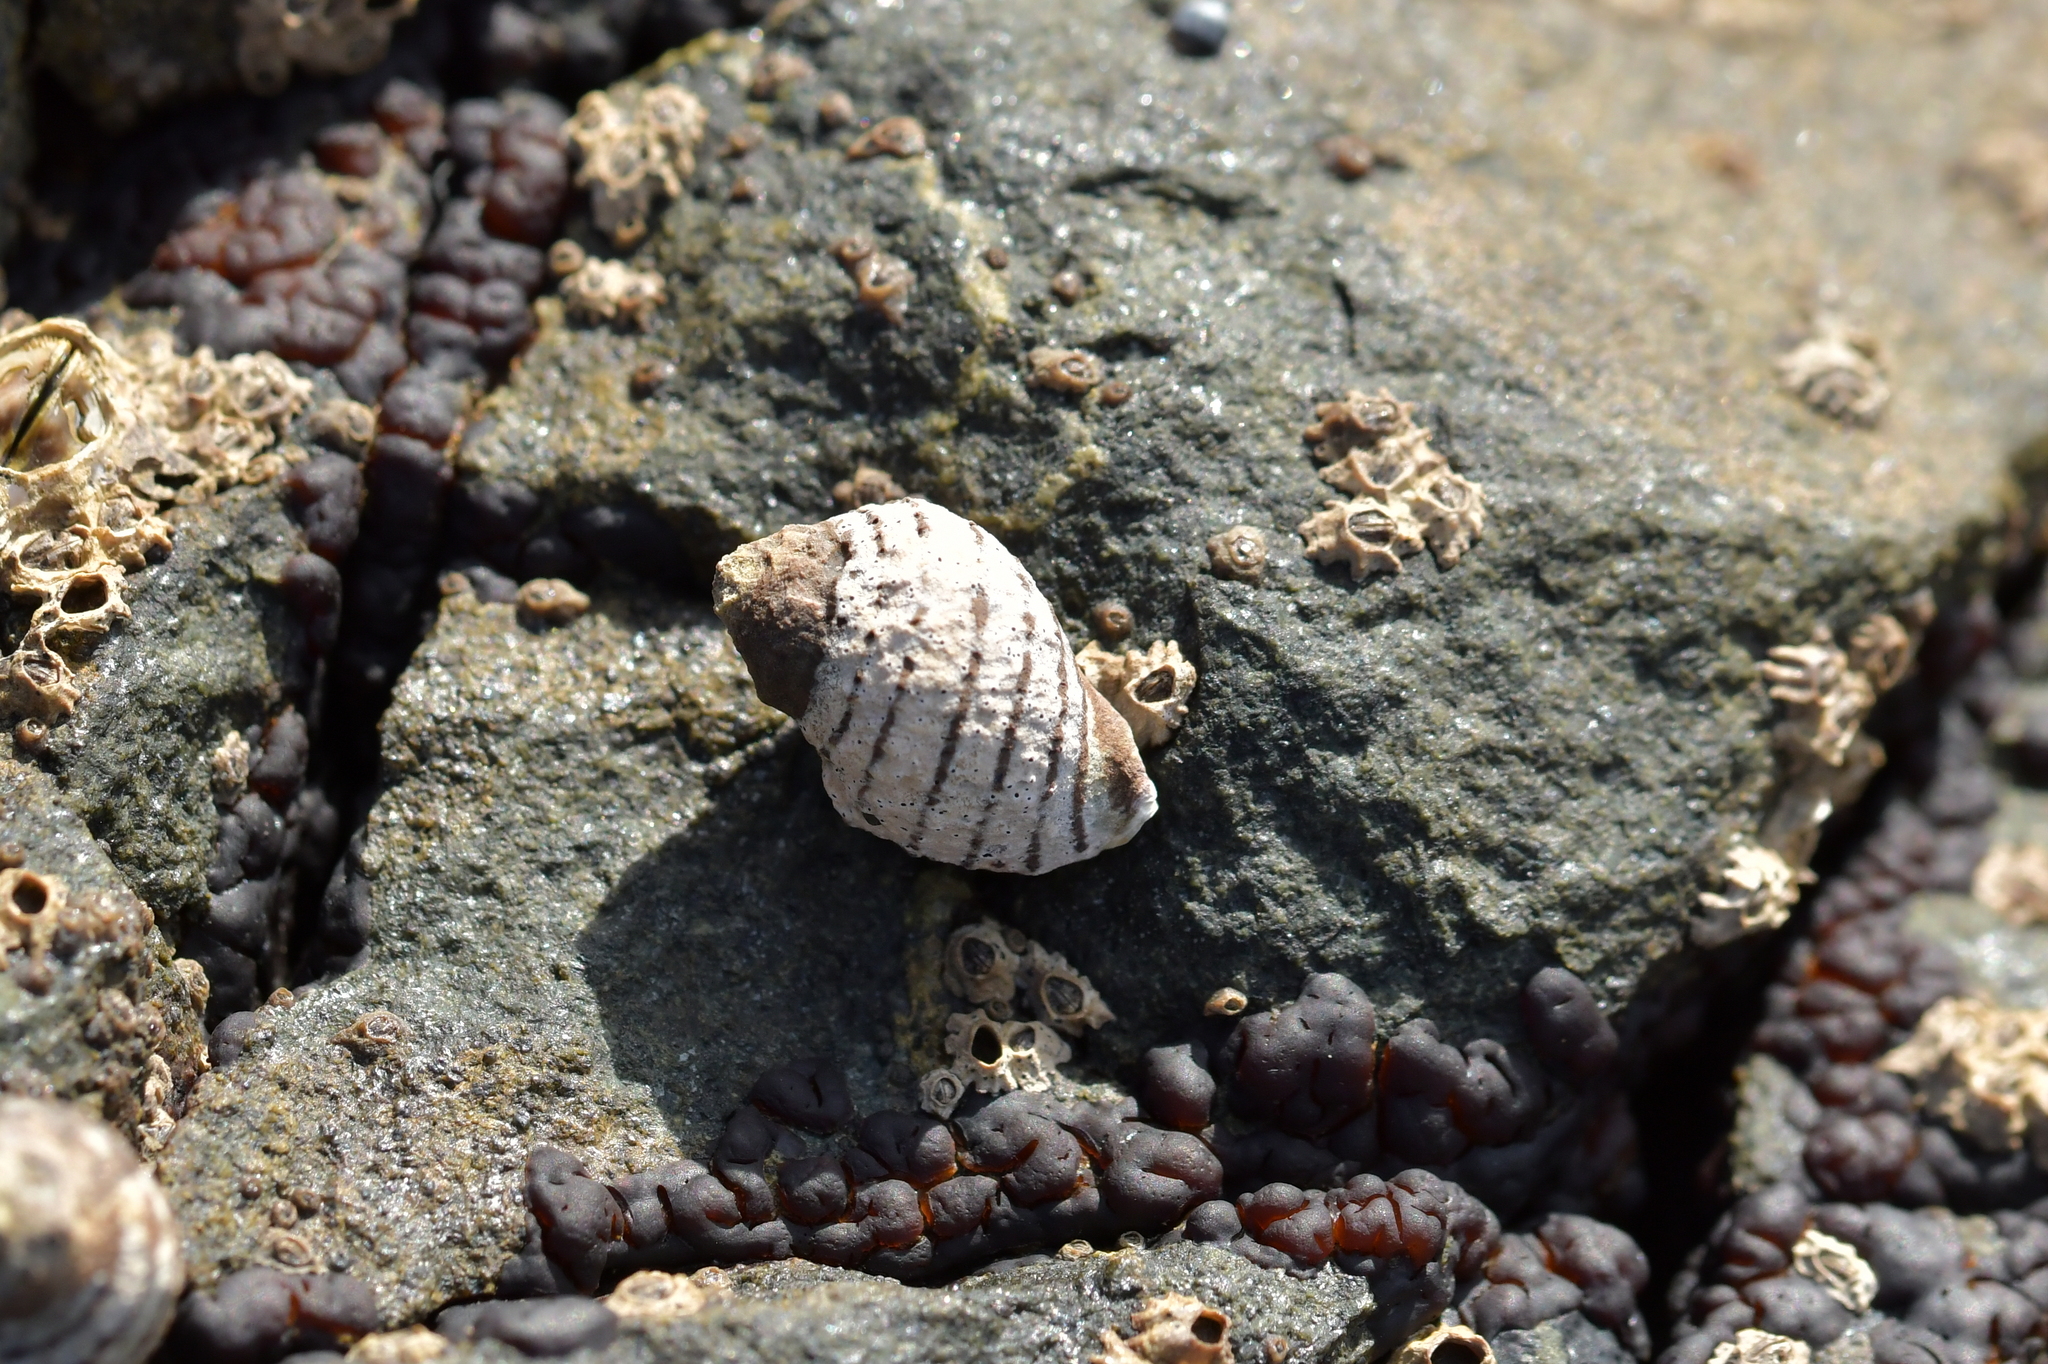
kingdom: Animalia
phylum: Mollusca
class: Gastropoda
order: Neogastropoda
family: Muricidae
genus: Haustrum
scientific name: Haustrum
